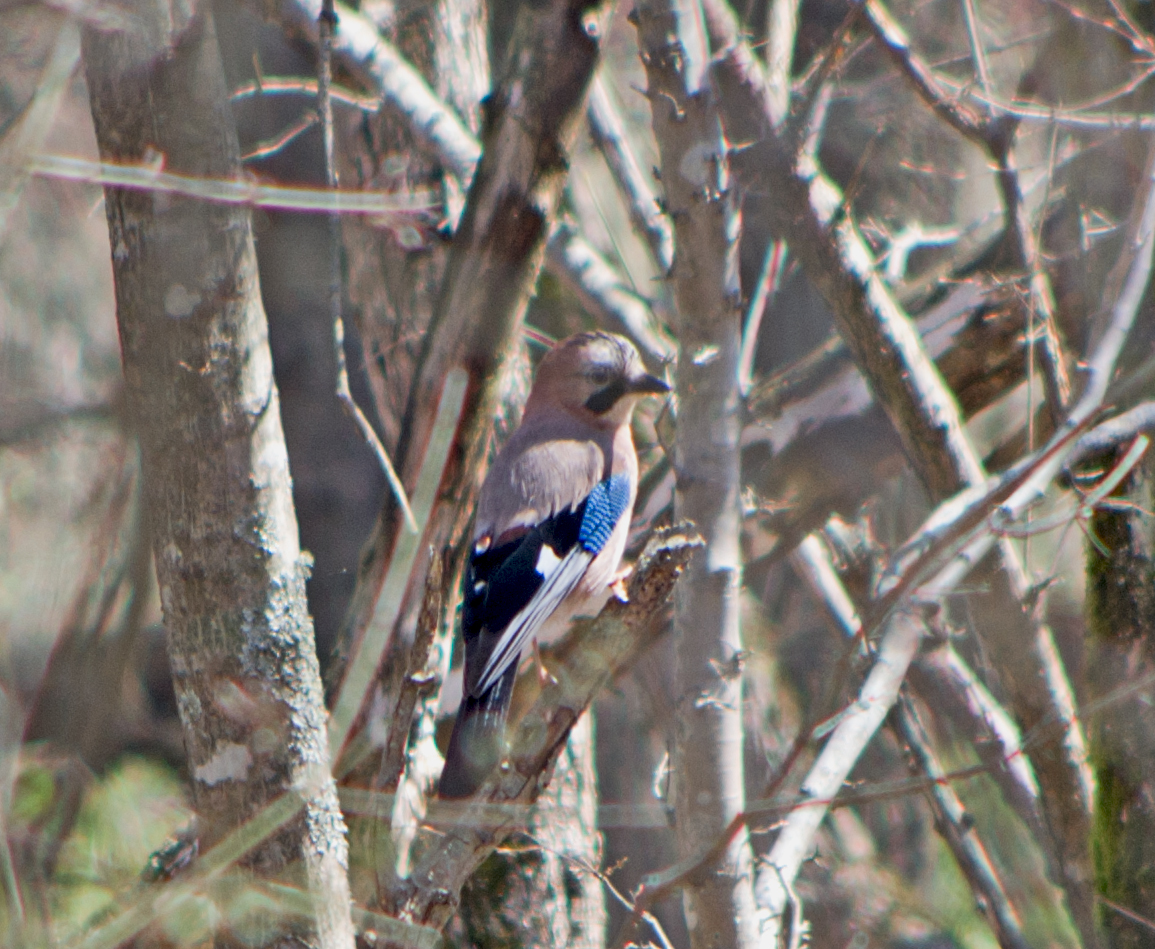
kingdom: Animalia
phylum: Chordata
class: Aves
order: Passeriformes
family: Corvidae
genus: Garrulus
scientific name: Garrulus glandarius
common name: Eurasian jay
